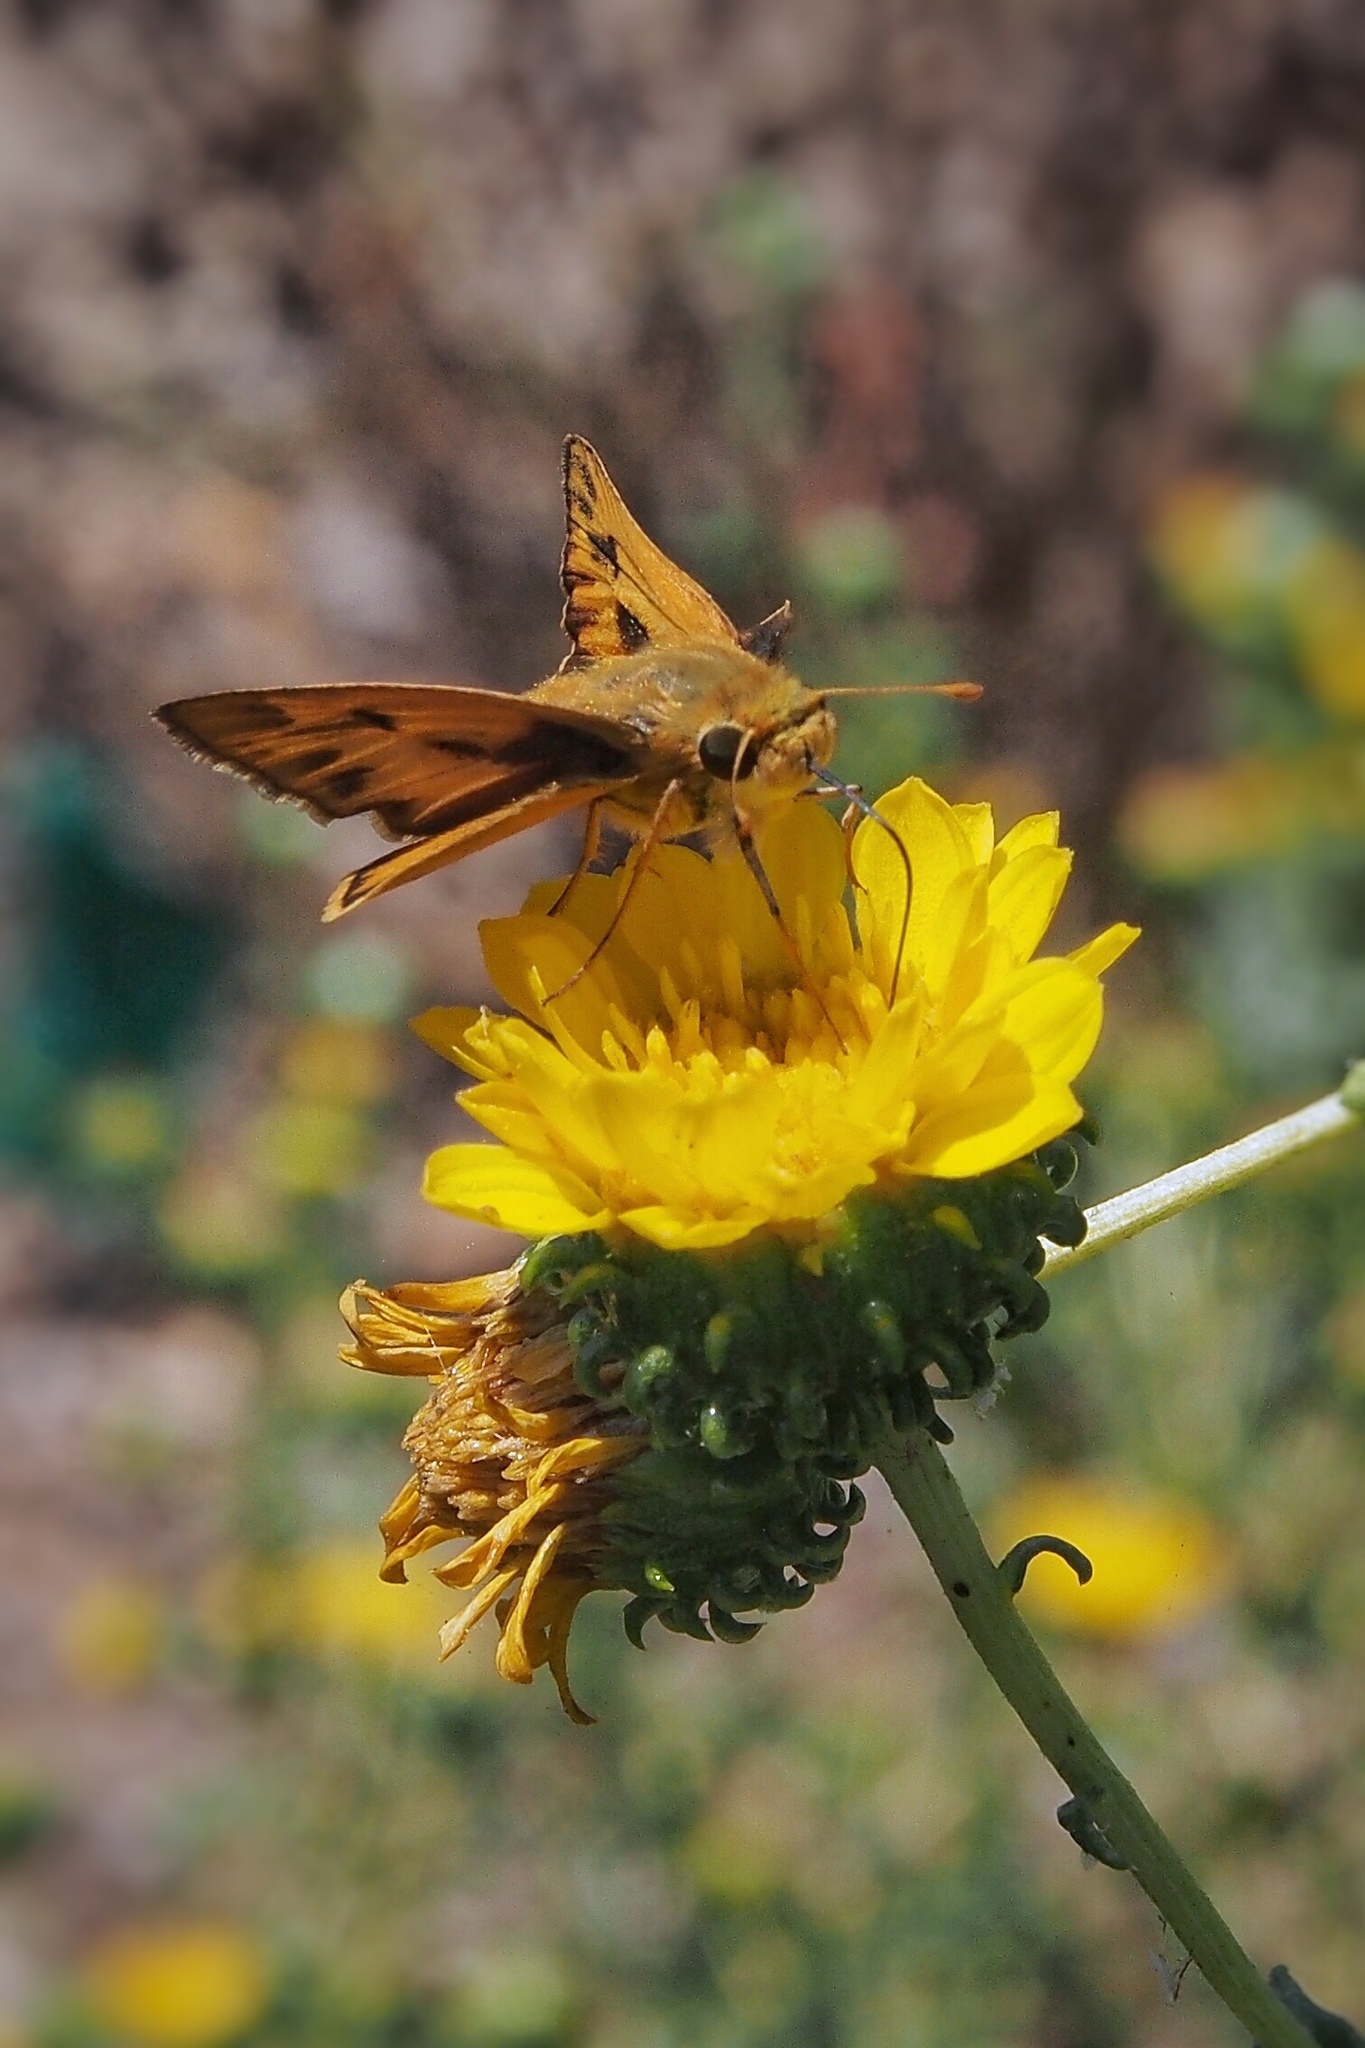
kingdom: Animalia
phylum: Arthropoda
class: Insecta
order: Lepidoptera
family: Hesperiidae
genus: Hylephila
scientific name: Hylephila phyleus
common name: Fiery skipper
